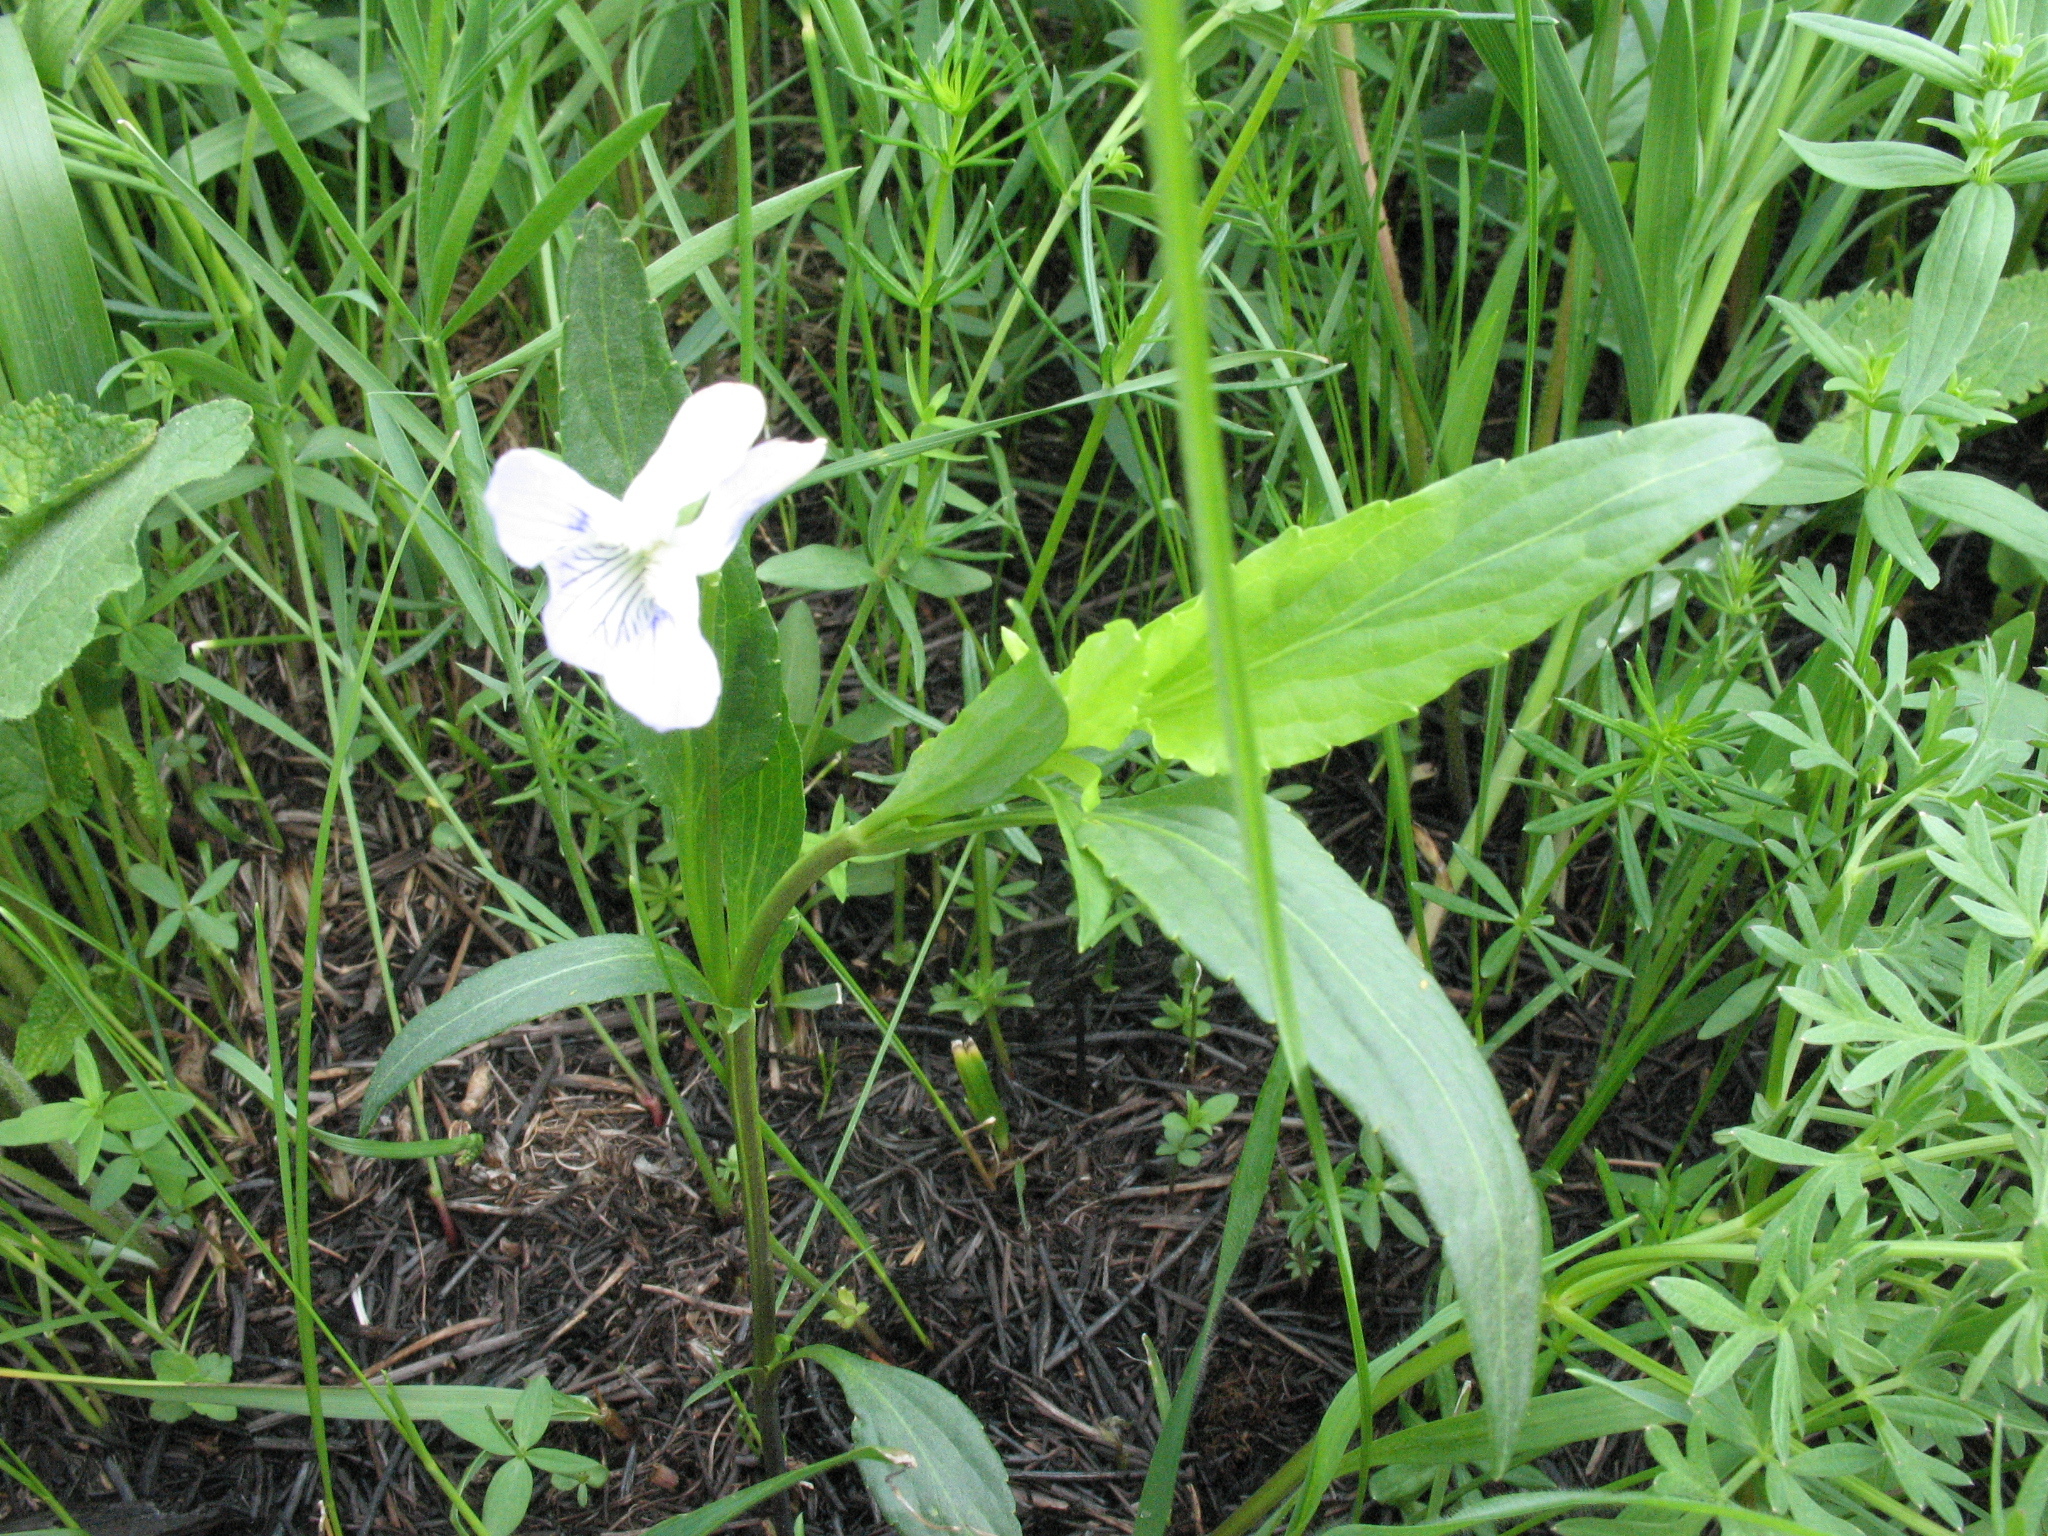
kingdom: Plantae
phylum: Tracheophyta
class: Magnoliopsida
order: Malpighiales
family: Violaceae
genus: Viola
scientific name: Viola pumila
